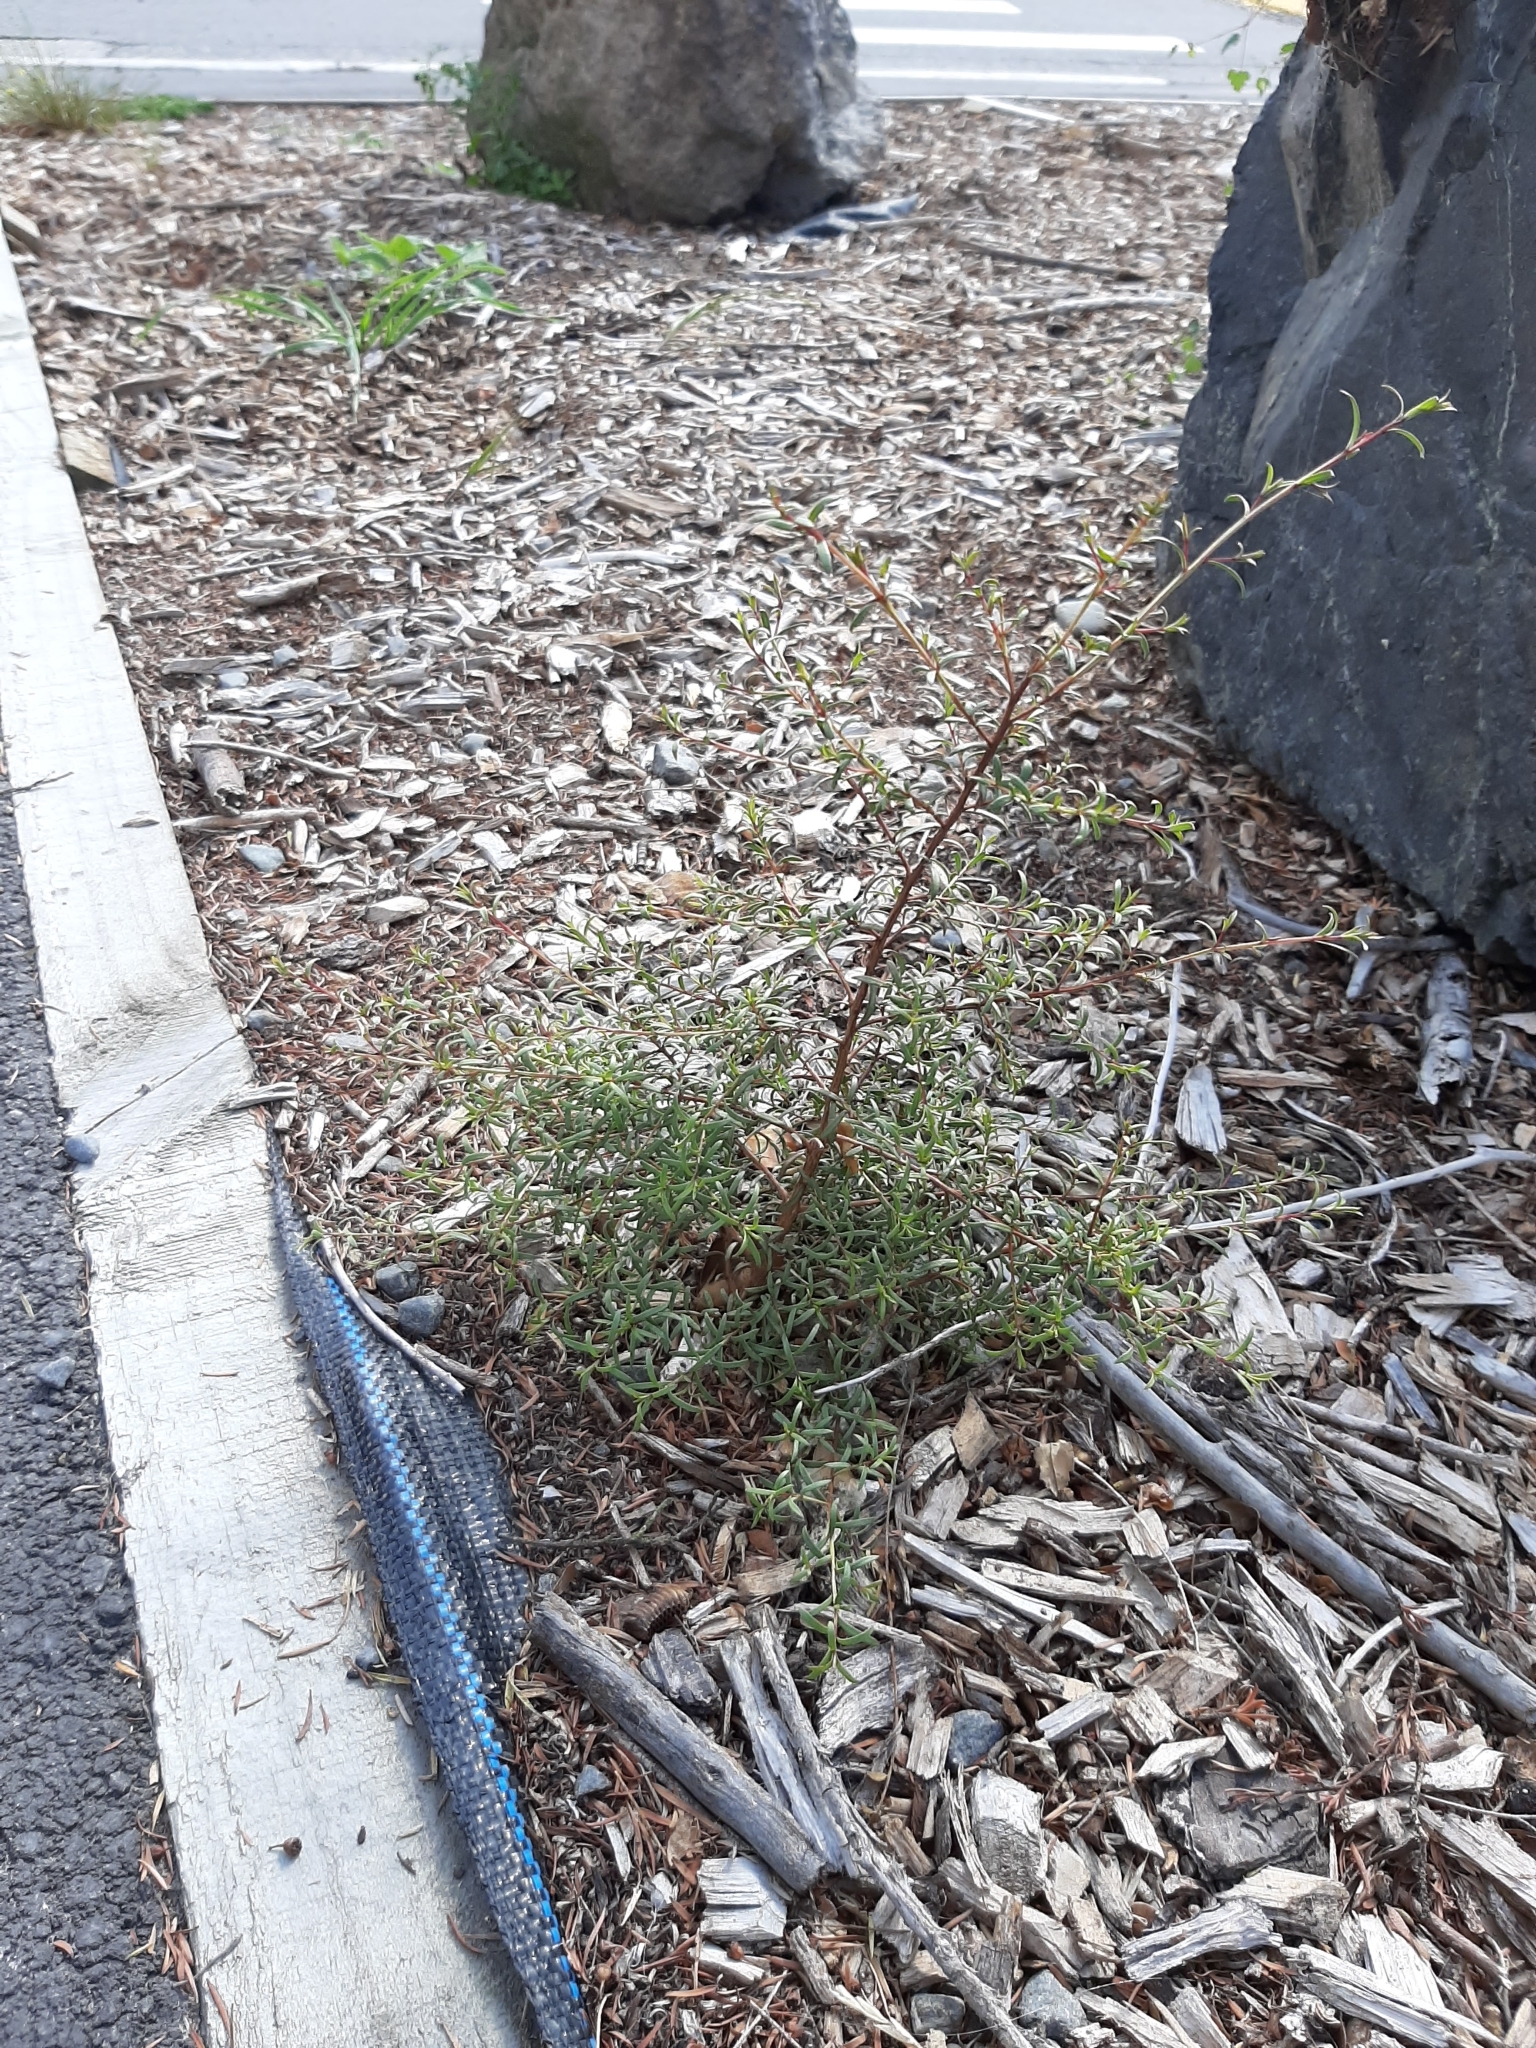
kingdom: Plantae
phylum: Tracheophyta
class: Magnoliopsida
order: Myrtales
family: Myrtaceae
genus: Kunzea
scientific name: Kunzea robusta
